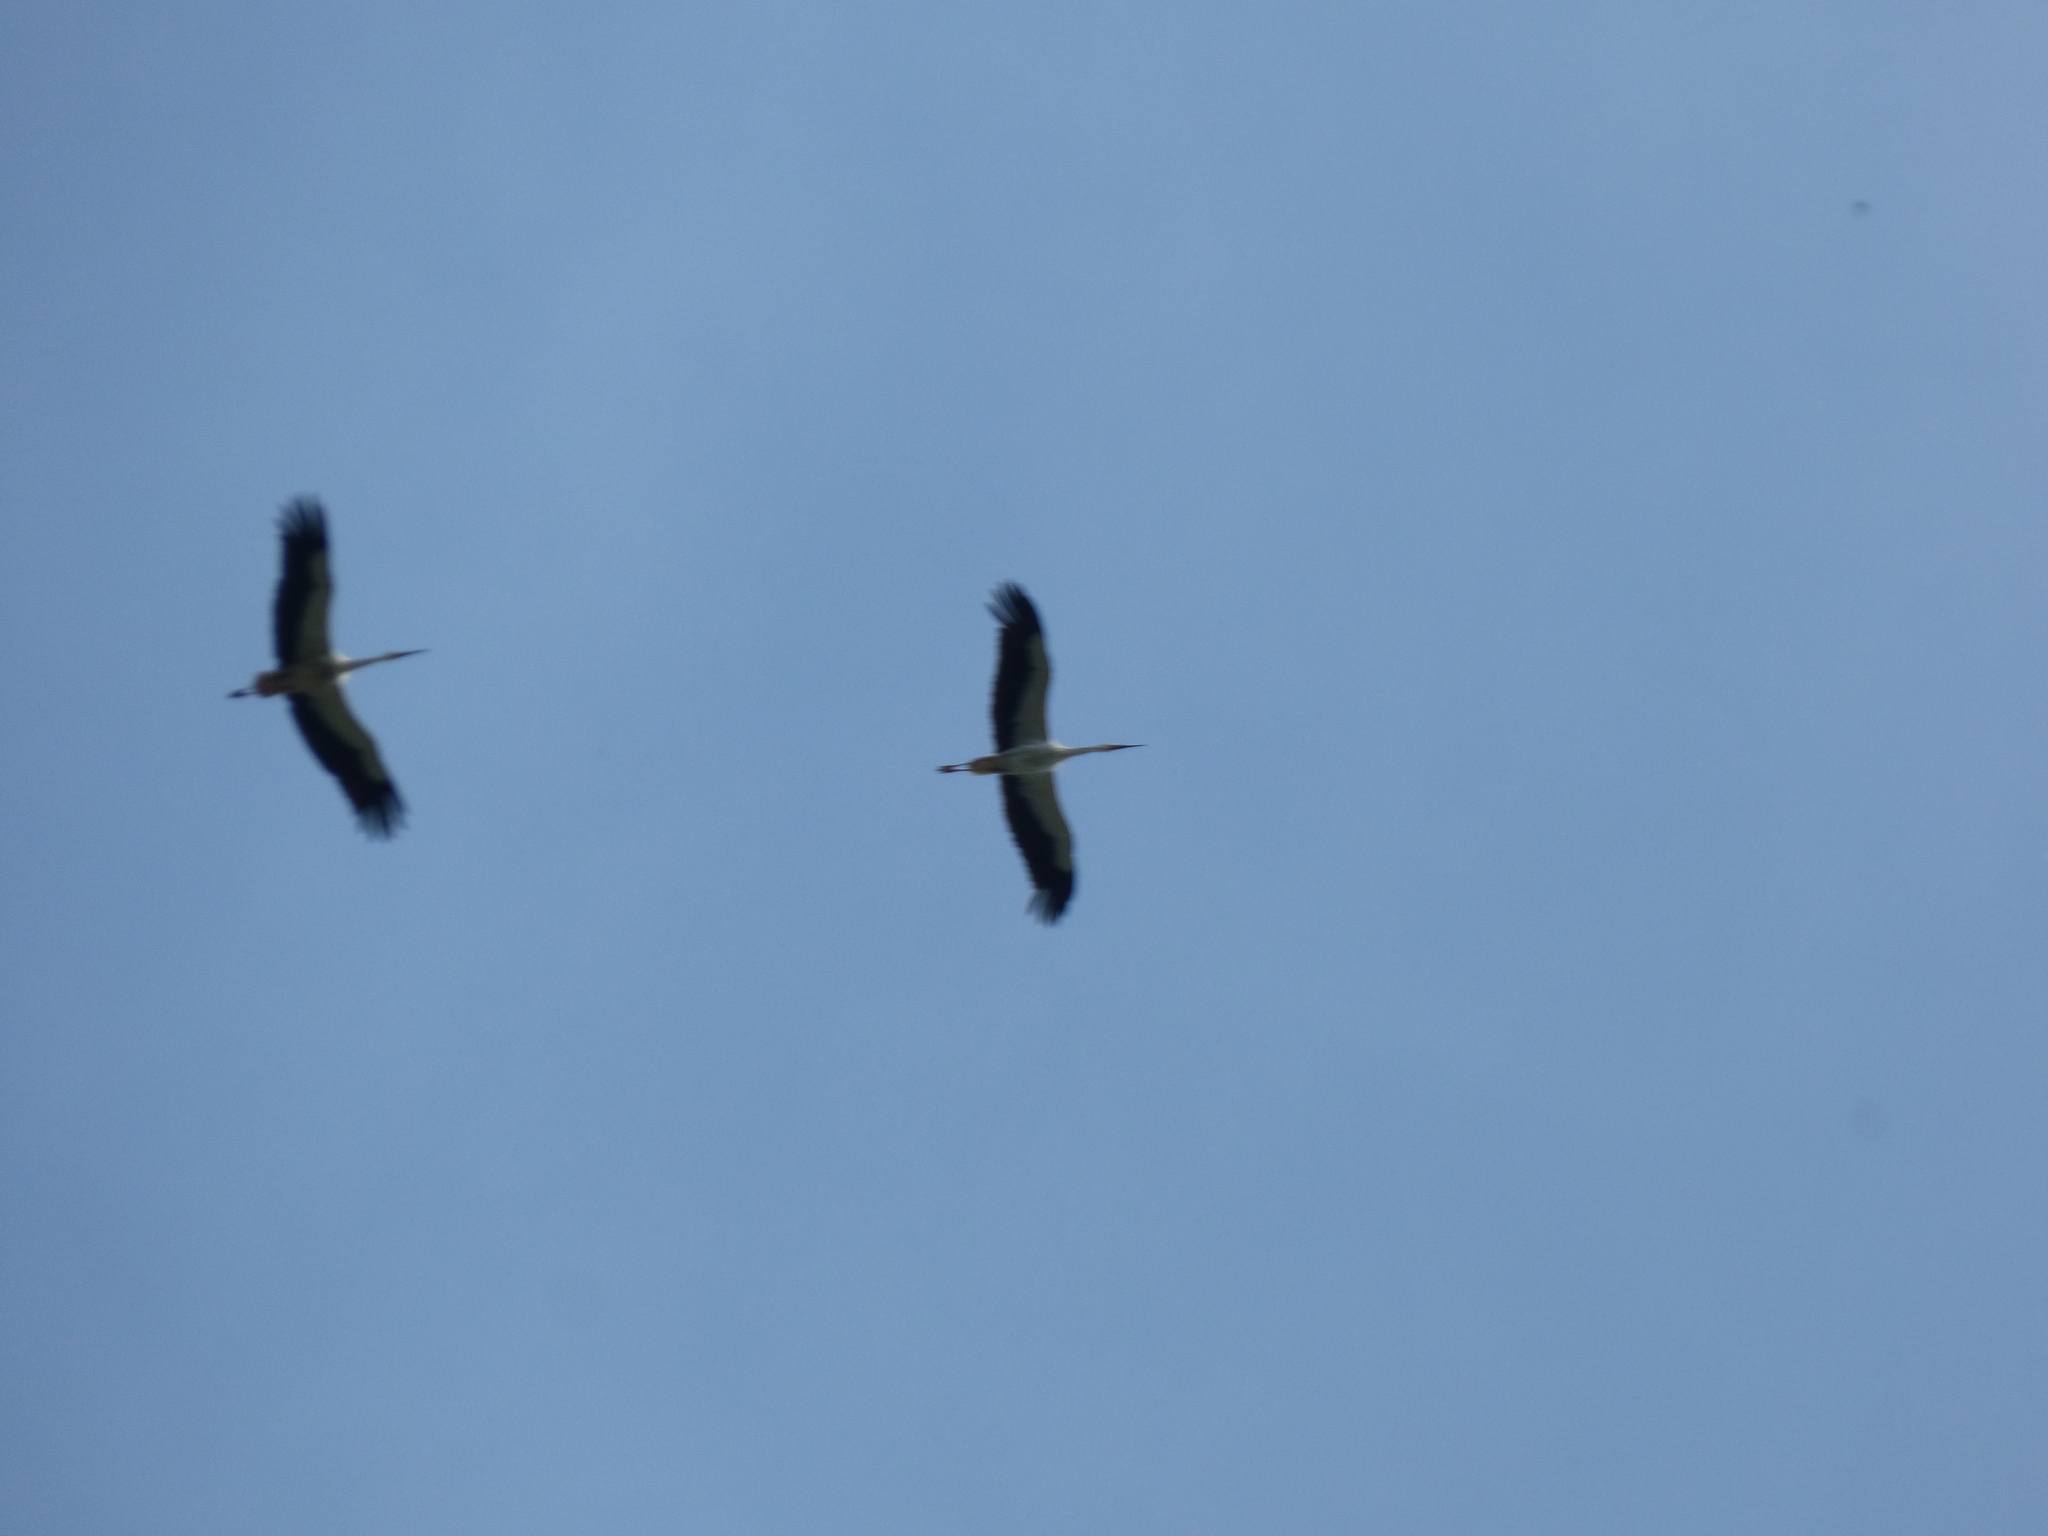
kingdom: Animalia
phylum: Chordata
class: Aves
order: Ciconiiformes
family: Ciconiidae
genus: Ciconia
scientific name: Ciconia ciconia
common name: White stork
